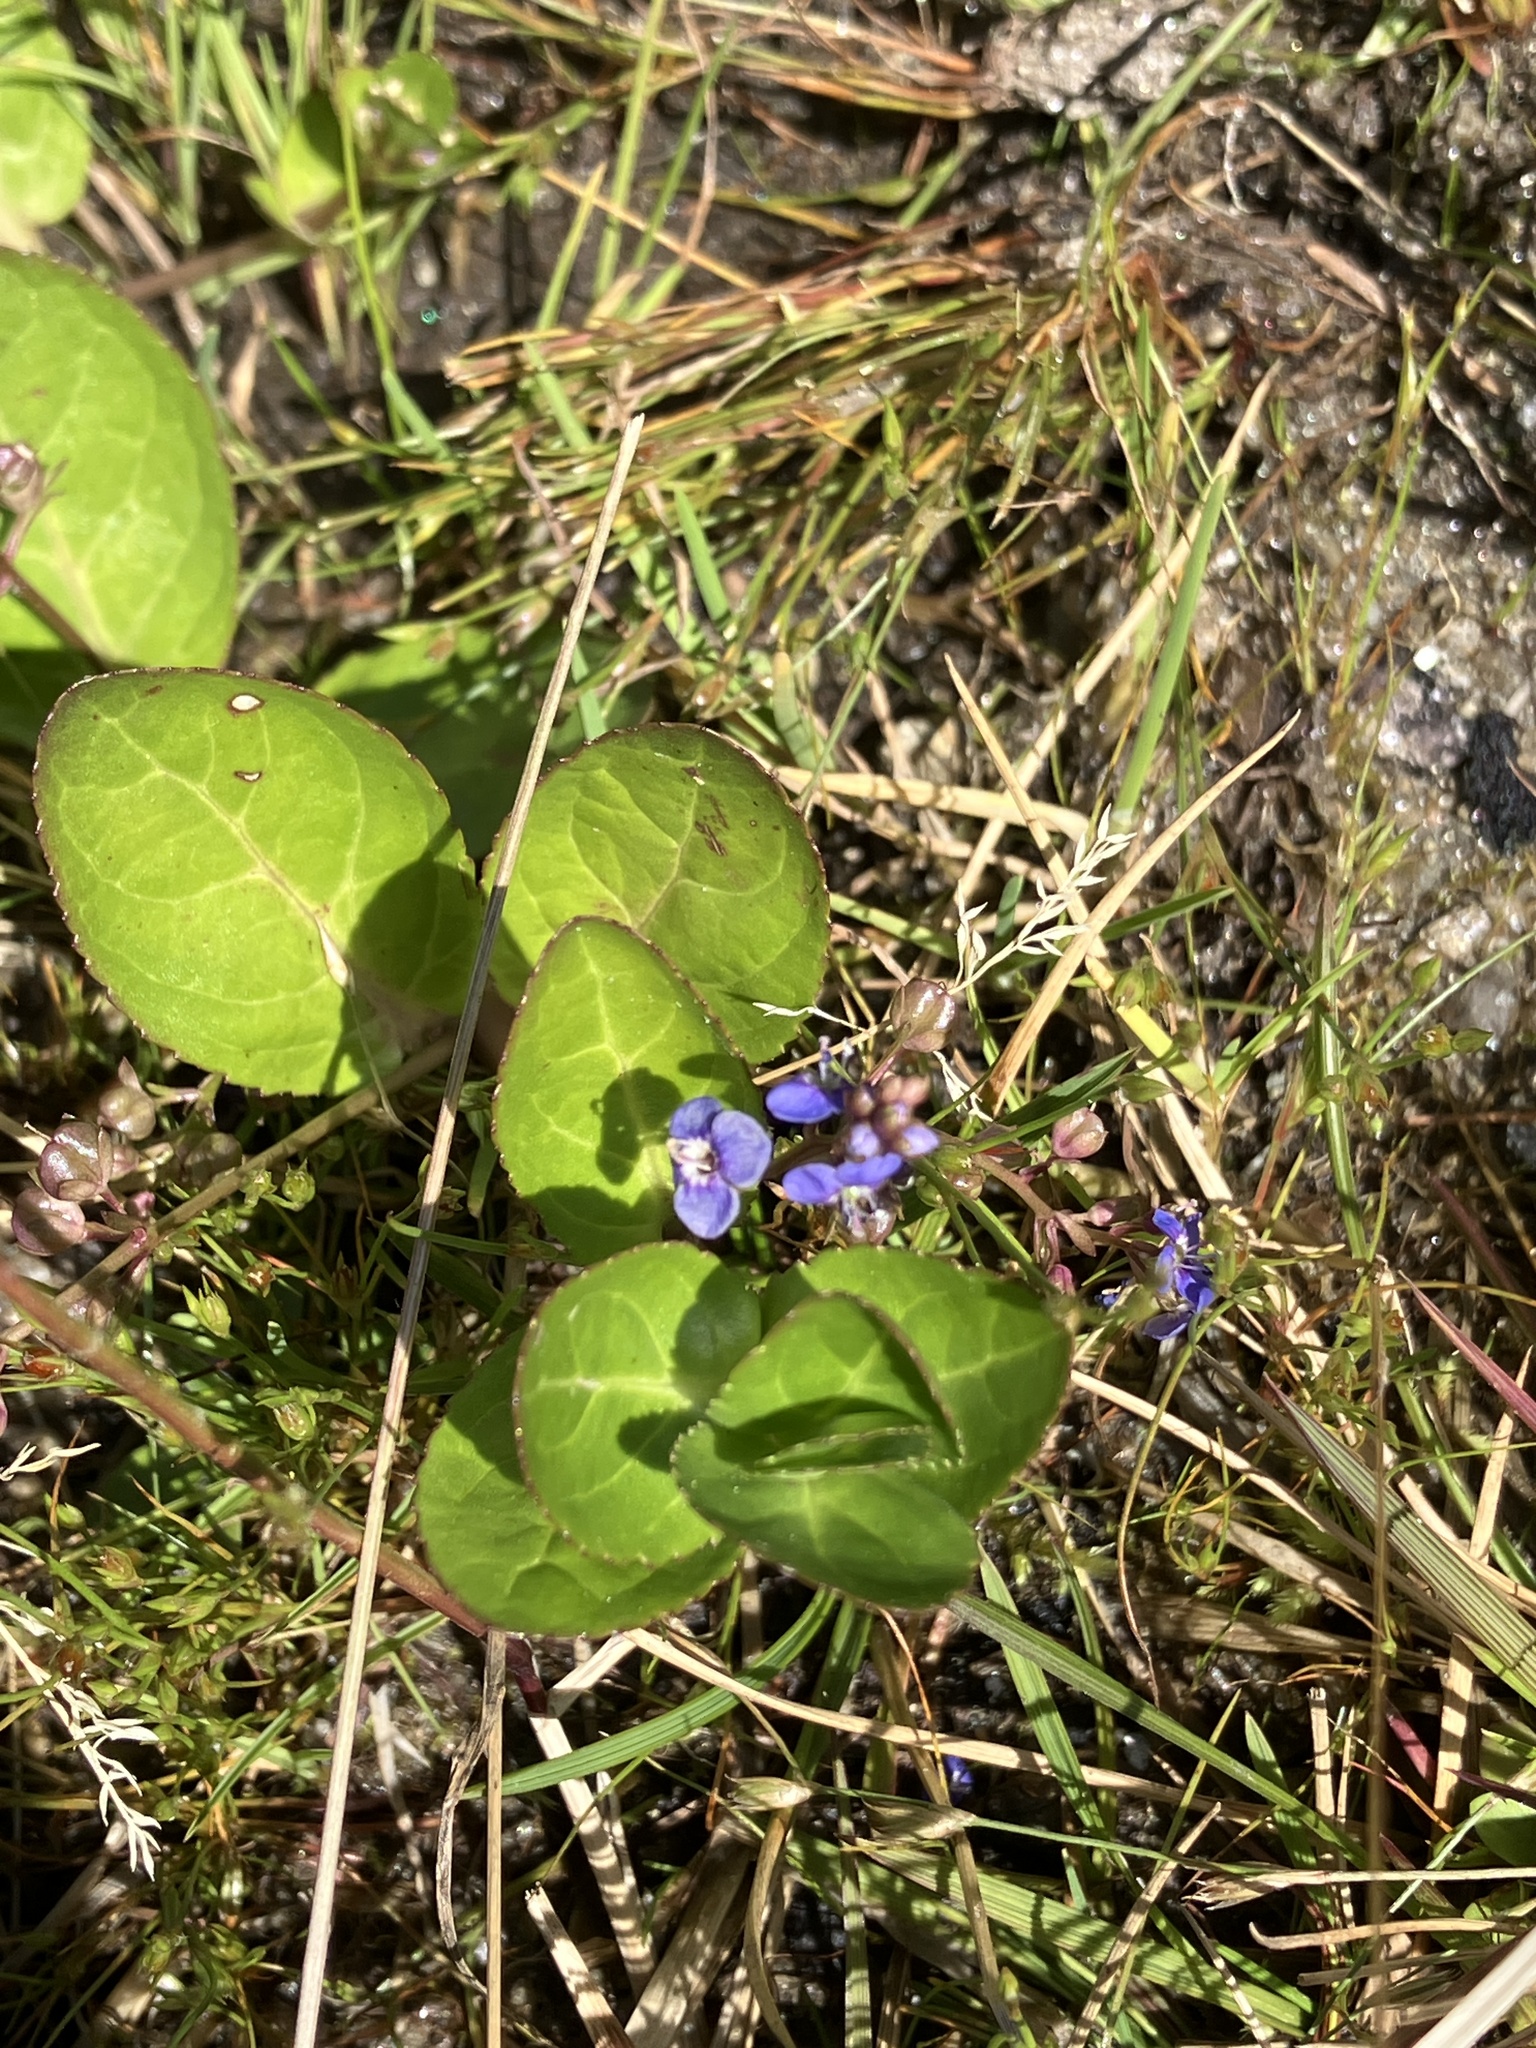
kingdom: Plantae
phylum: Tracheophyta
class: Magnoliopsida
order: Lamiales
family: Plantaginaceae
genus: Veronica
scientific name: Veronica beccabunga
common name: Brooklime
